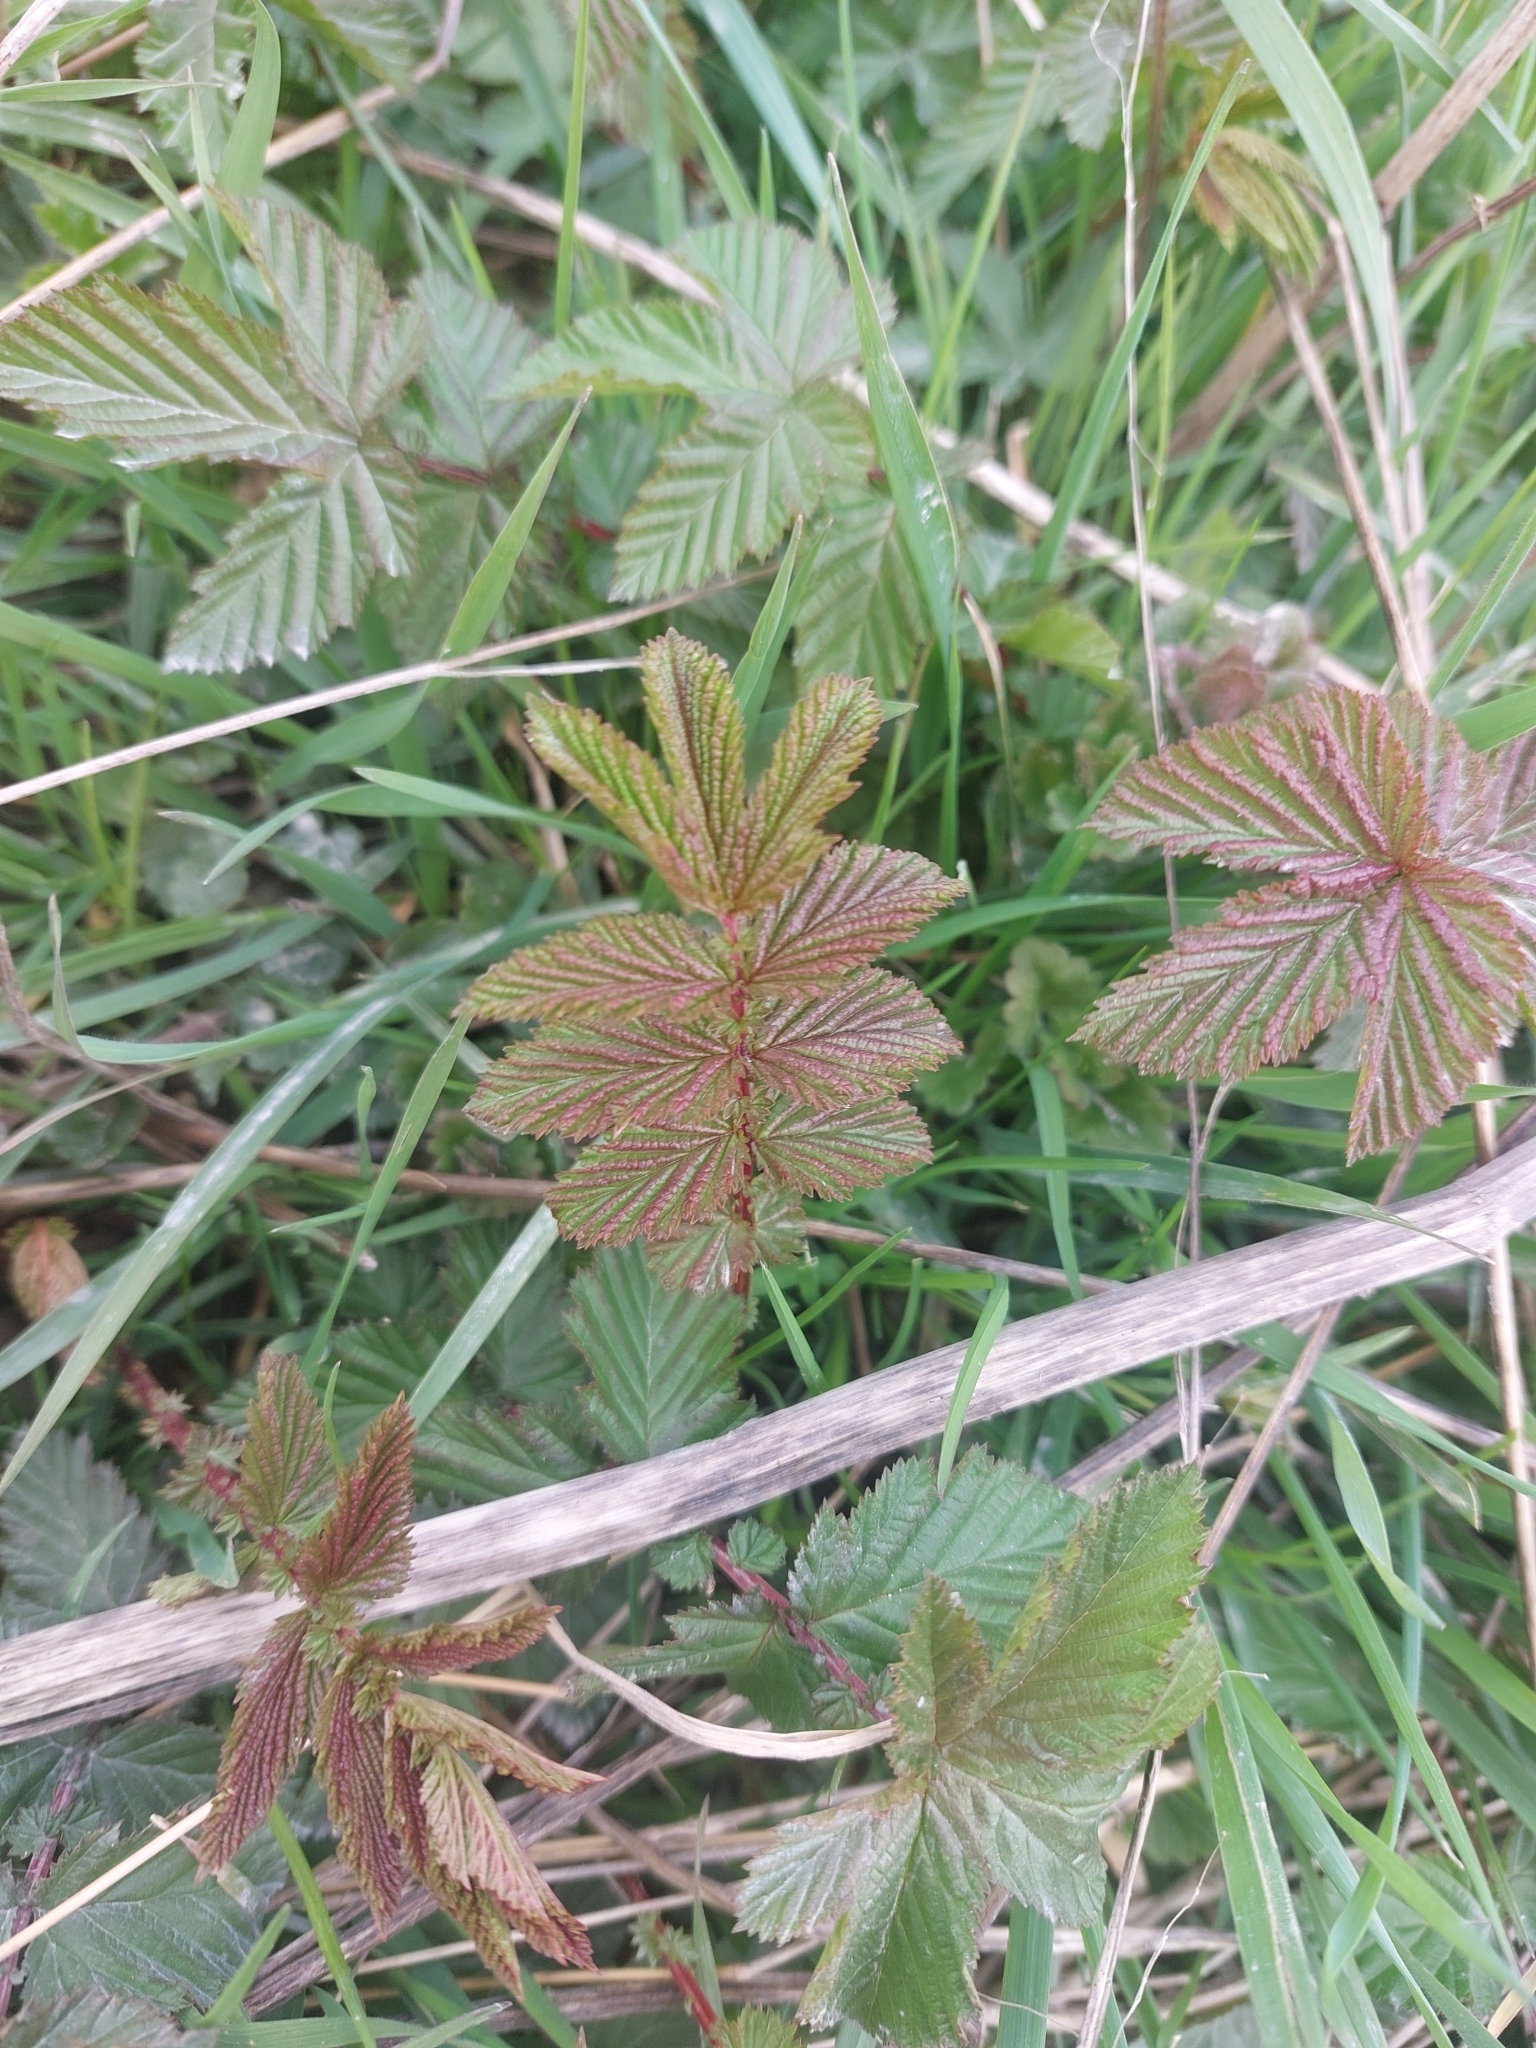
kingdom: Plantae
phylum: Tracheophyta
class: Magnoliopsida
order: Rosales
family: Rosaceae
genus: Filipendula
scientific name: Filipendula ulmaria
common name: Meadowsweet
